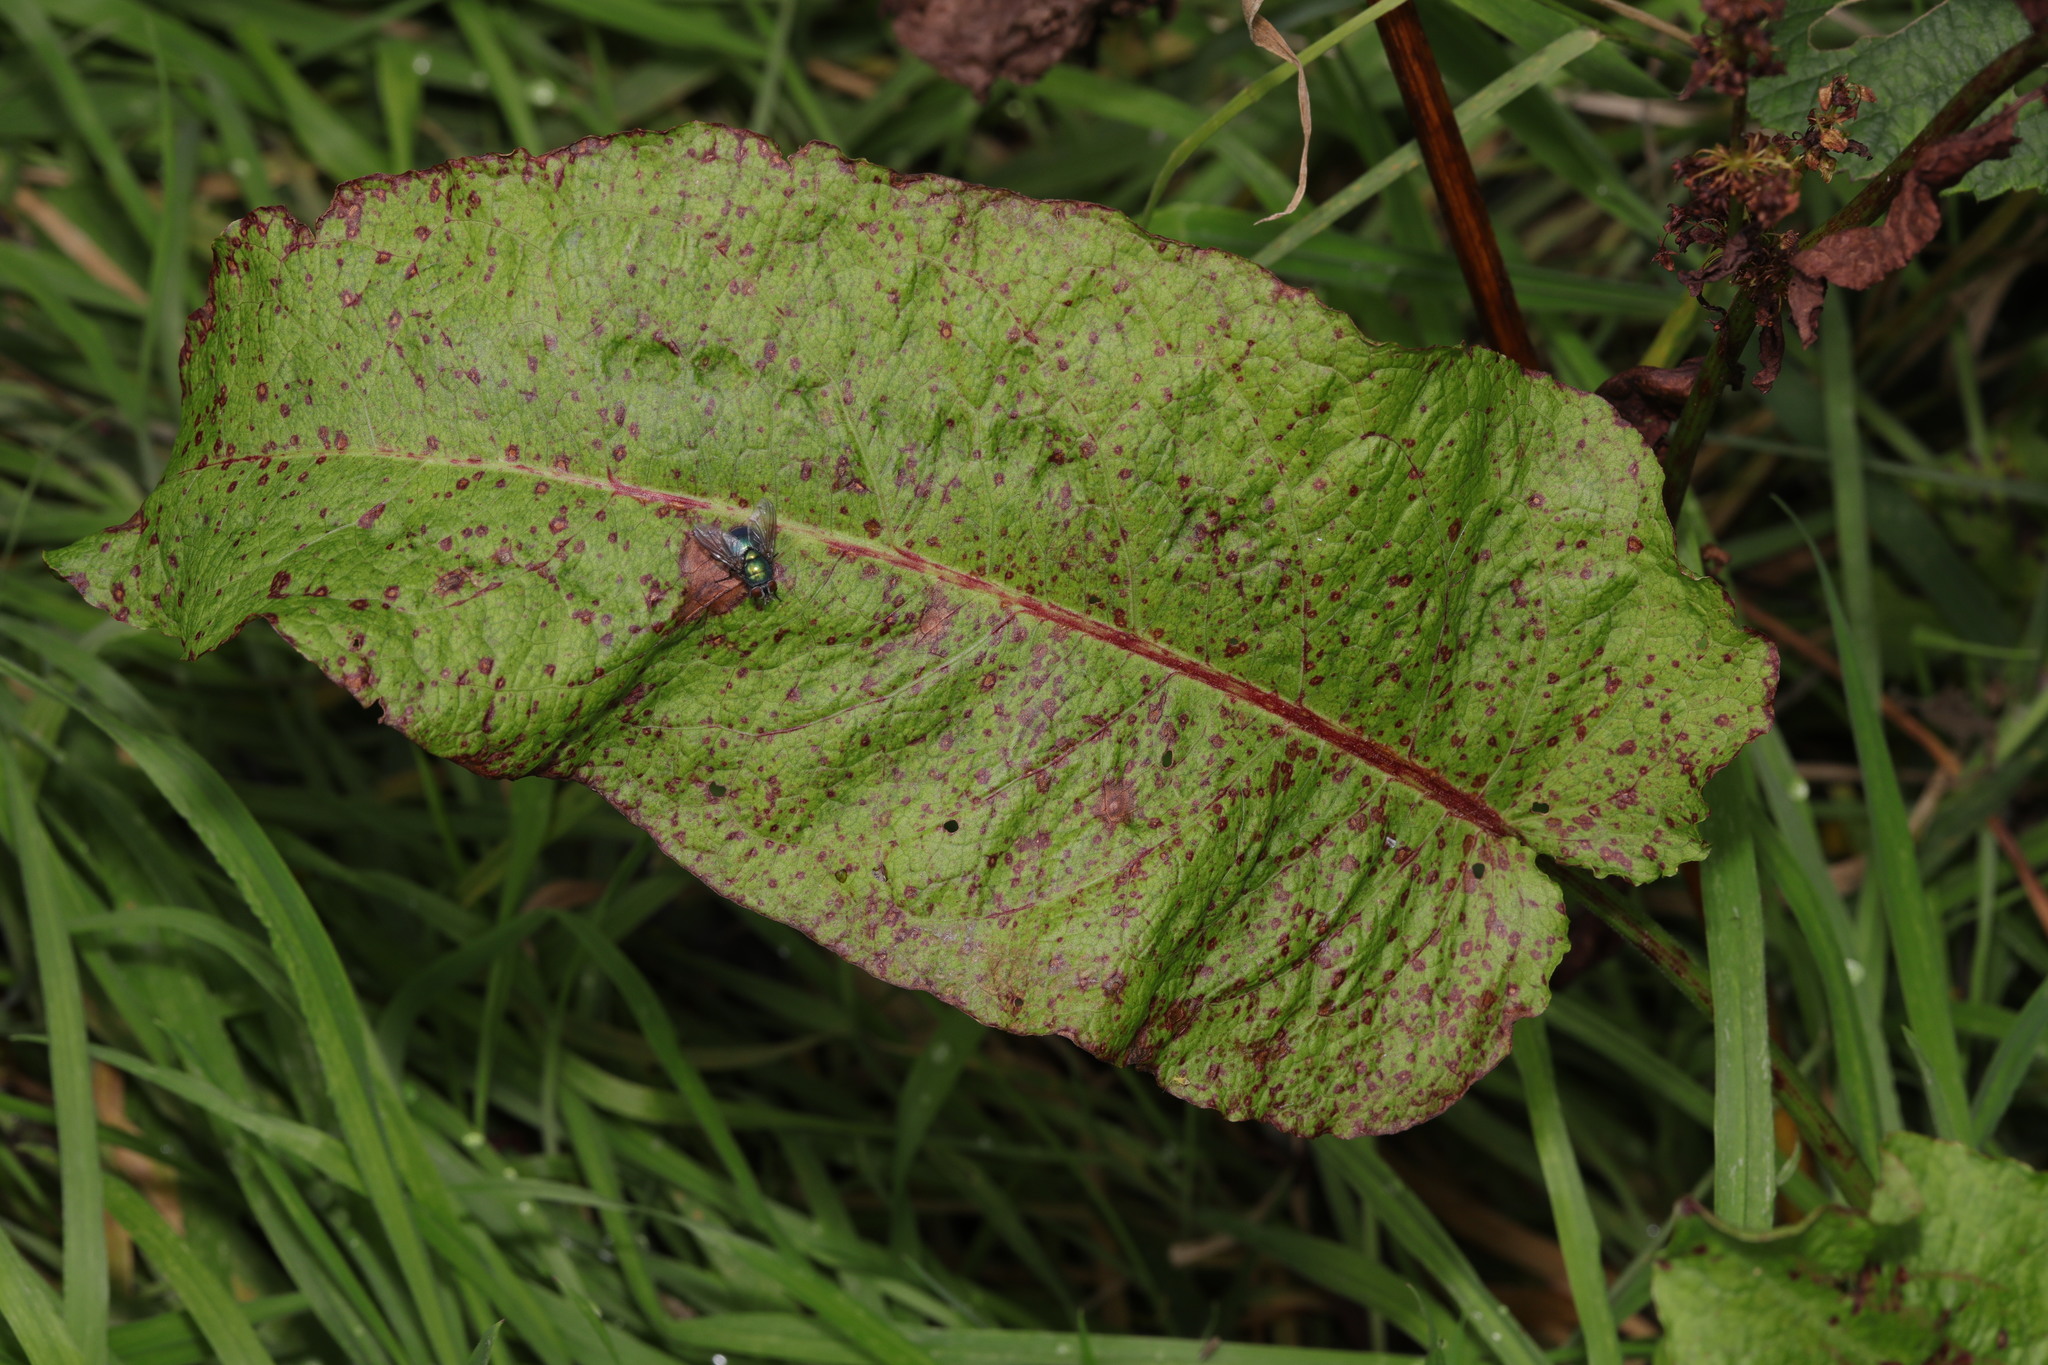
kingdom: Plantae
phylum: Tracheophyta
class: Magnoliopsida
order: Caryophyllales
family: Polygonaceae
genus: Rumex
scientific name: Rumex obtusifolius
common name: Bitter dock
